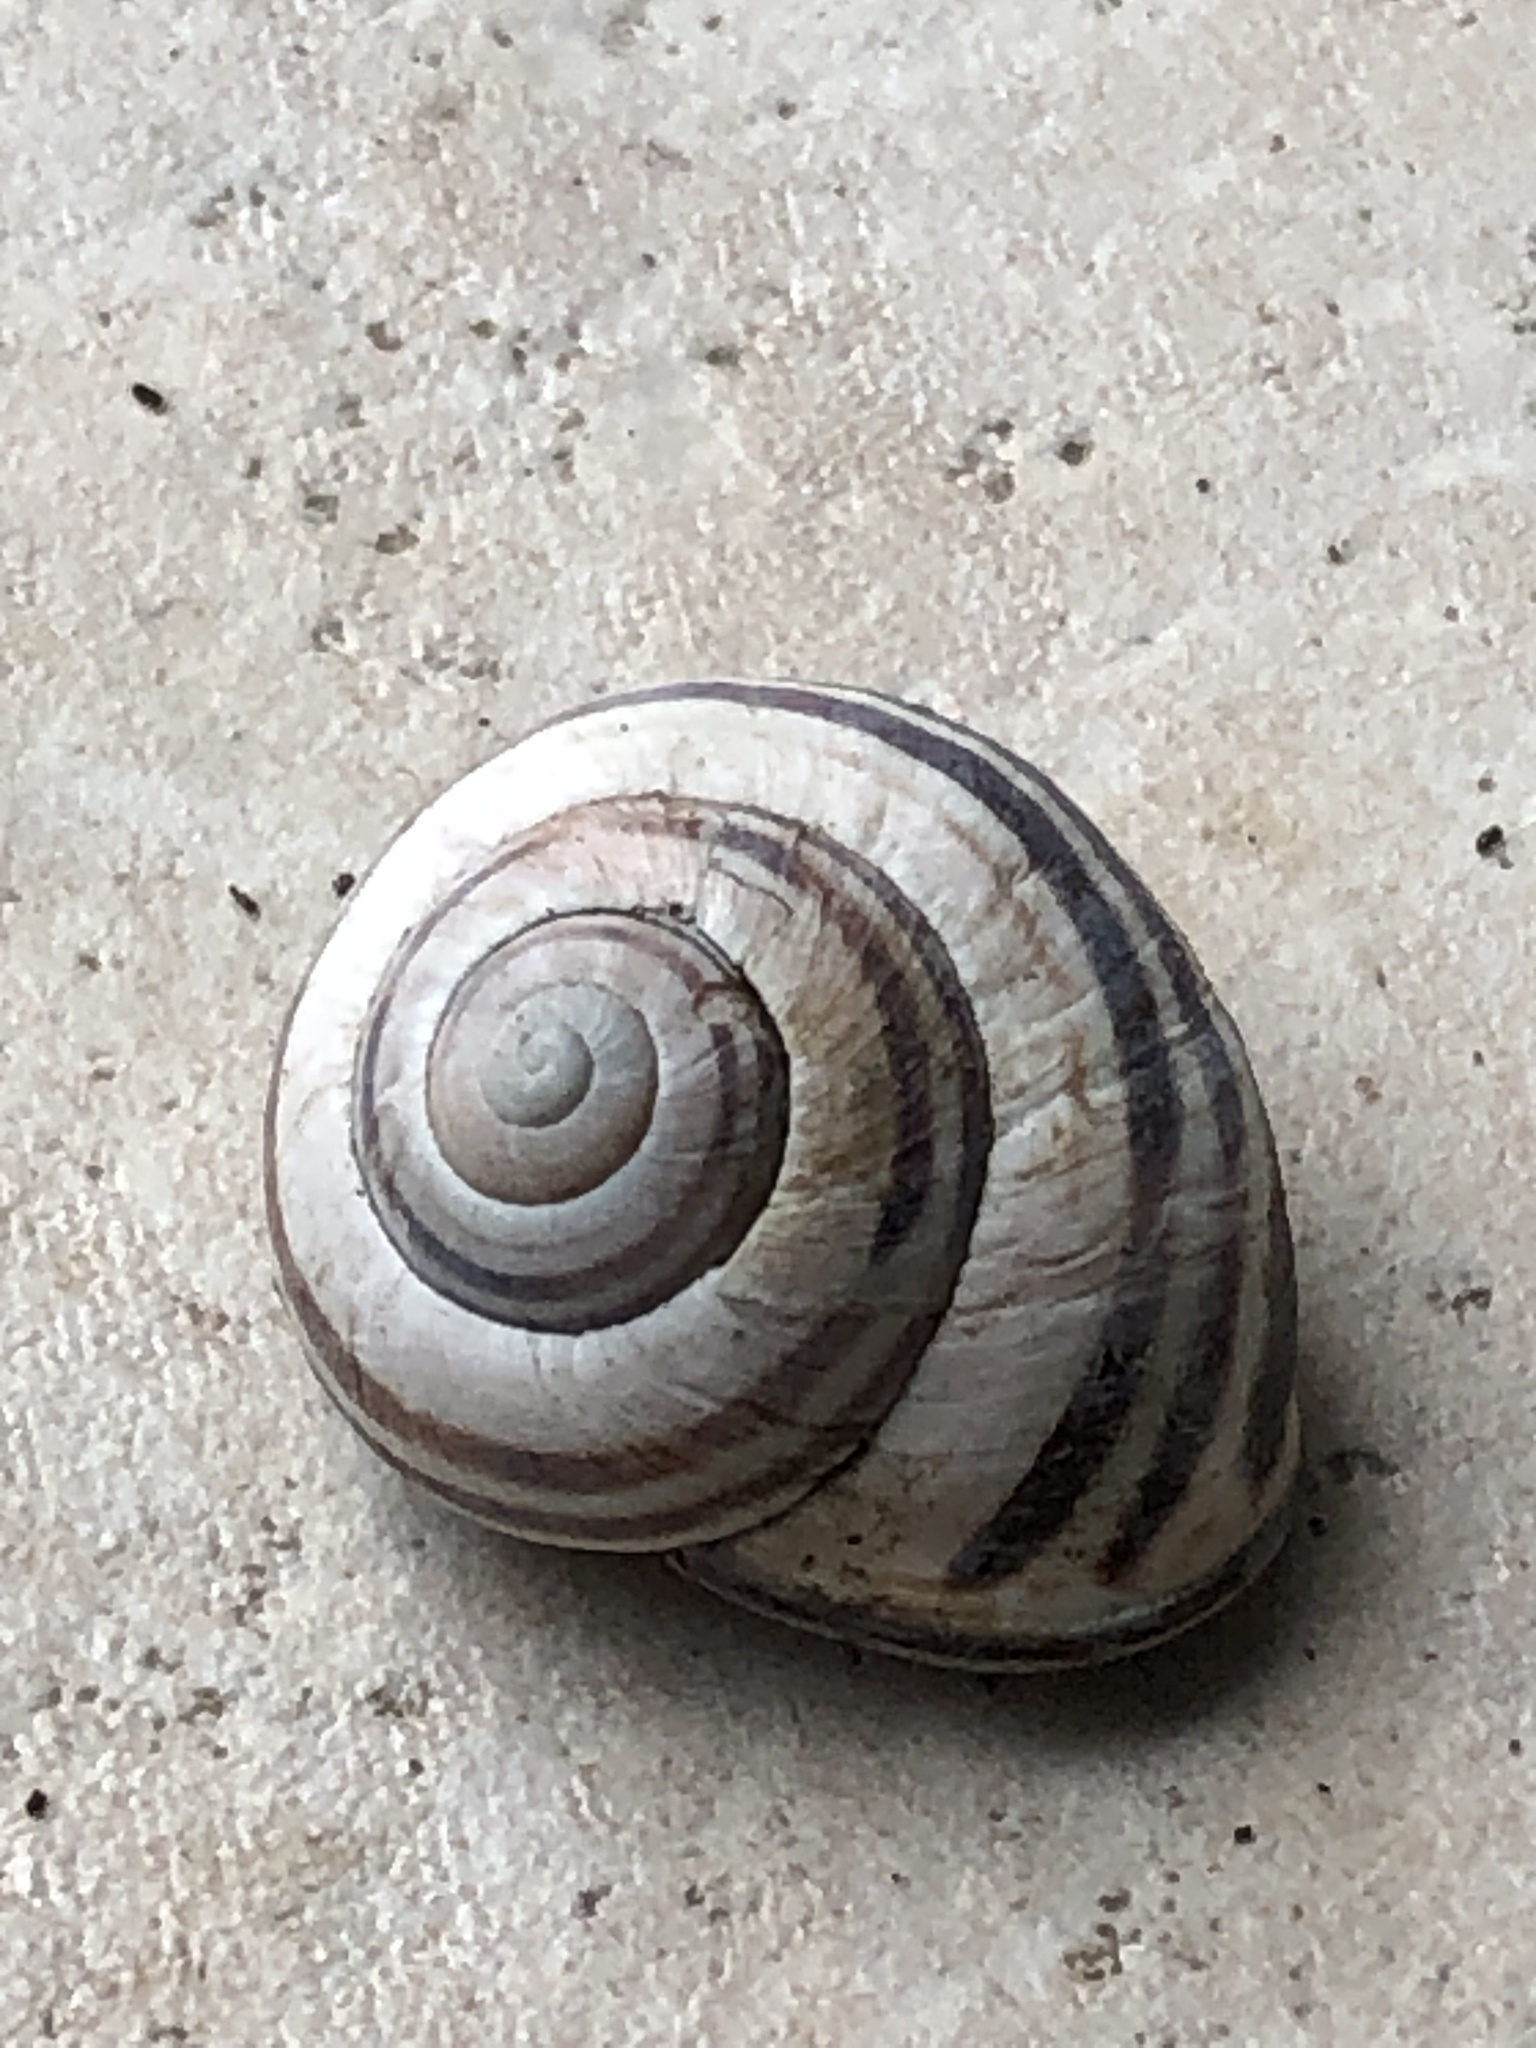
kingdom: Animalia
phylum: Mollusca
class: Gastropoda
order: Stylommatophora
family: Helicidae
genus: Cepaea
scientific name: Cepaea nemoralis
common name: Grovesnail
